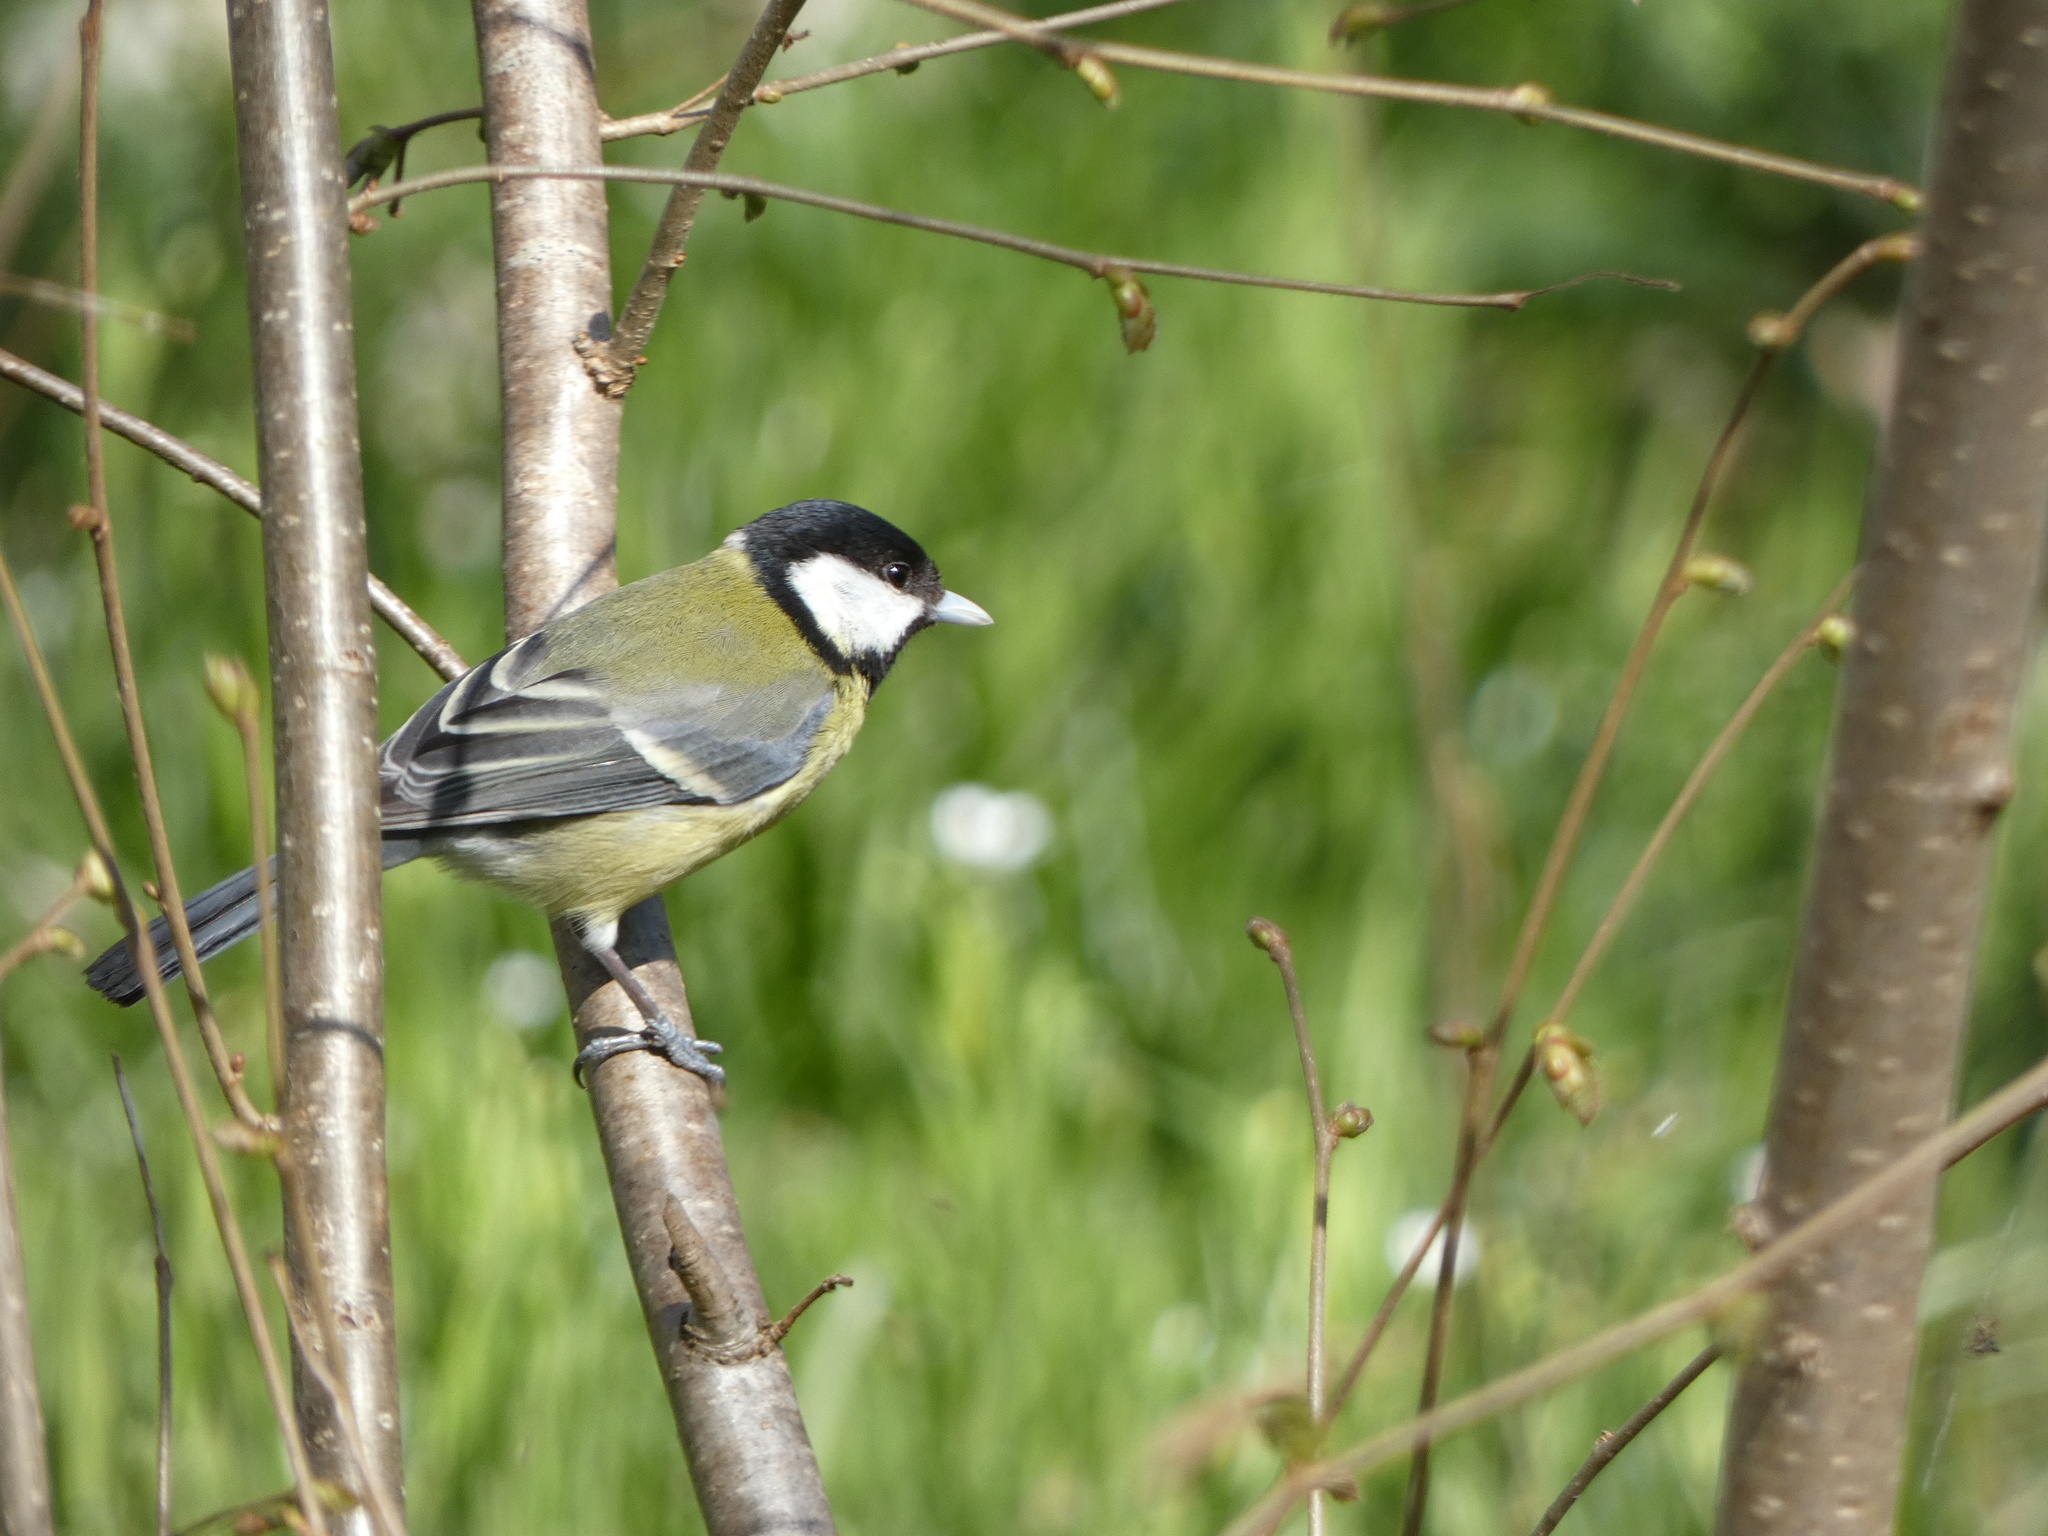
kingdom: Animalia
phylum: Chordata
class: Aves
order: Passeriformes
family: Paridae
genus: Parus
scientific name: Parus major
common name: Great tit
